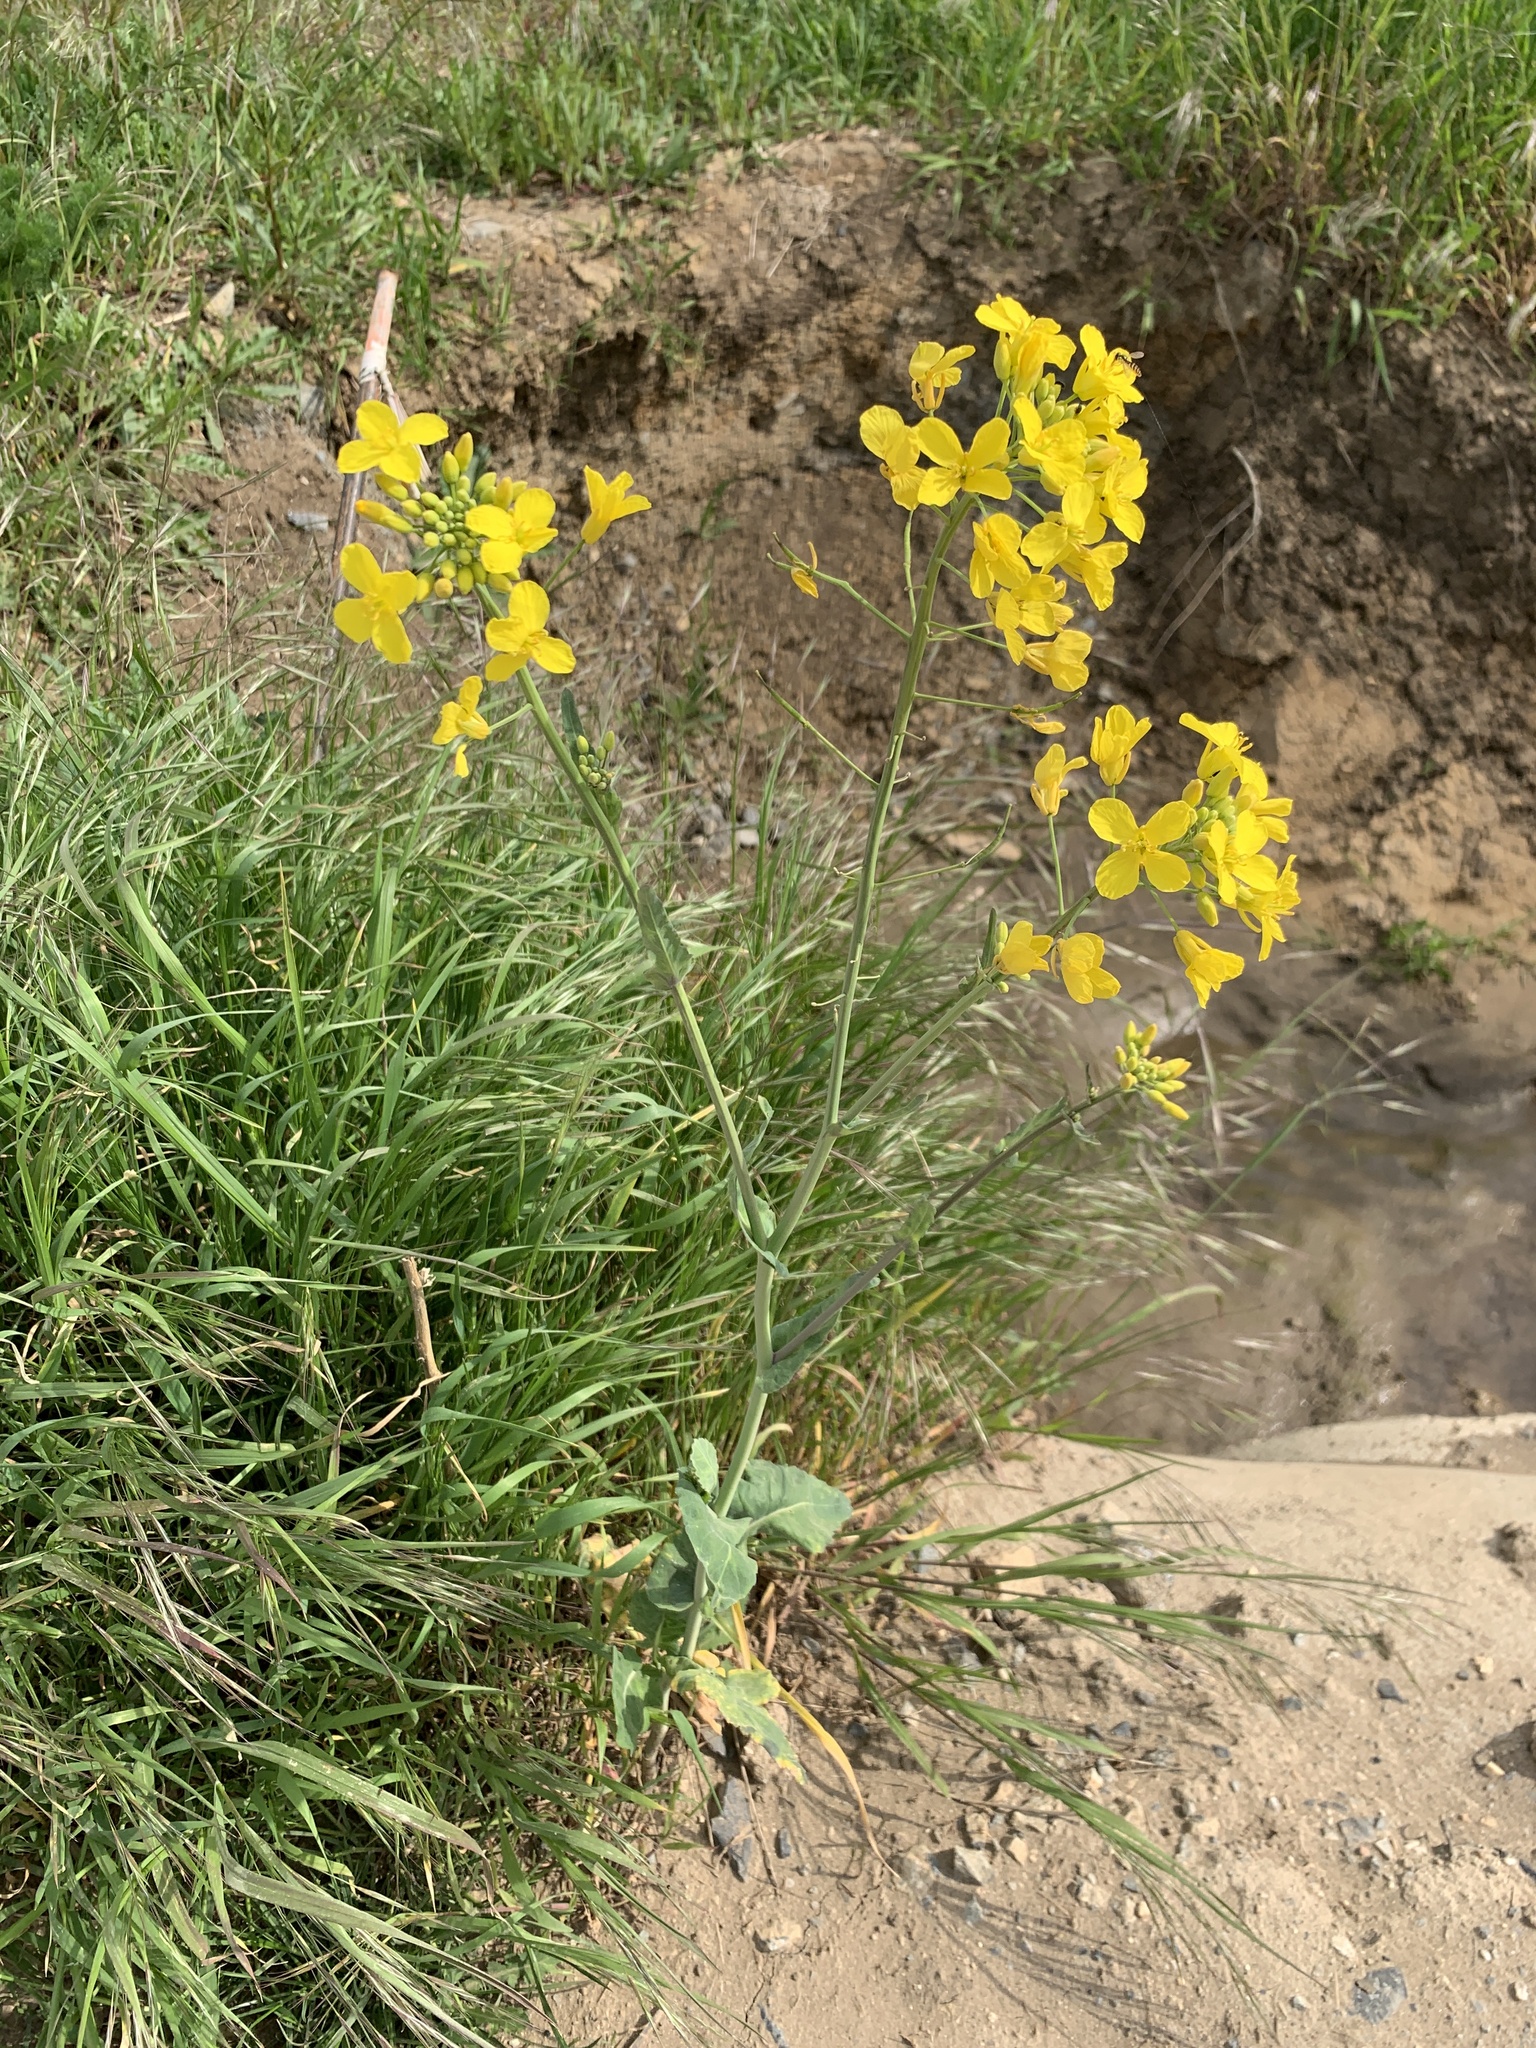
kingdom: Plantae
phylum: Tracheophyta
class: Magnoliopsida
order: Brassicales
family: Brassicaceae
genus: Brassica
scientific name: Brassica napus
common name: Rape
